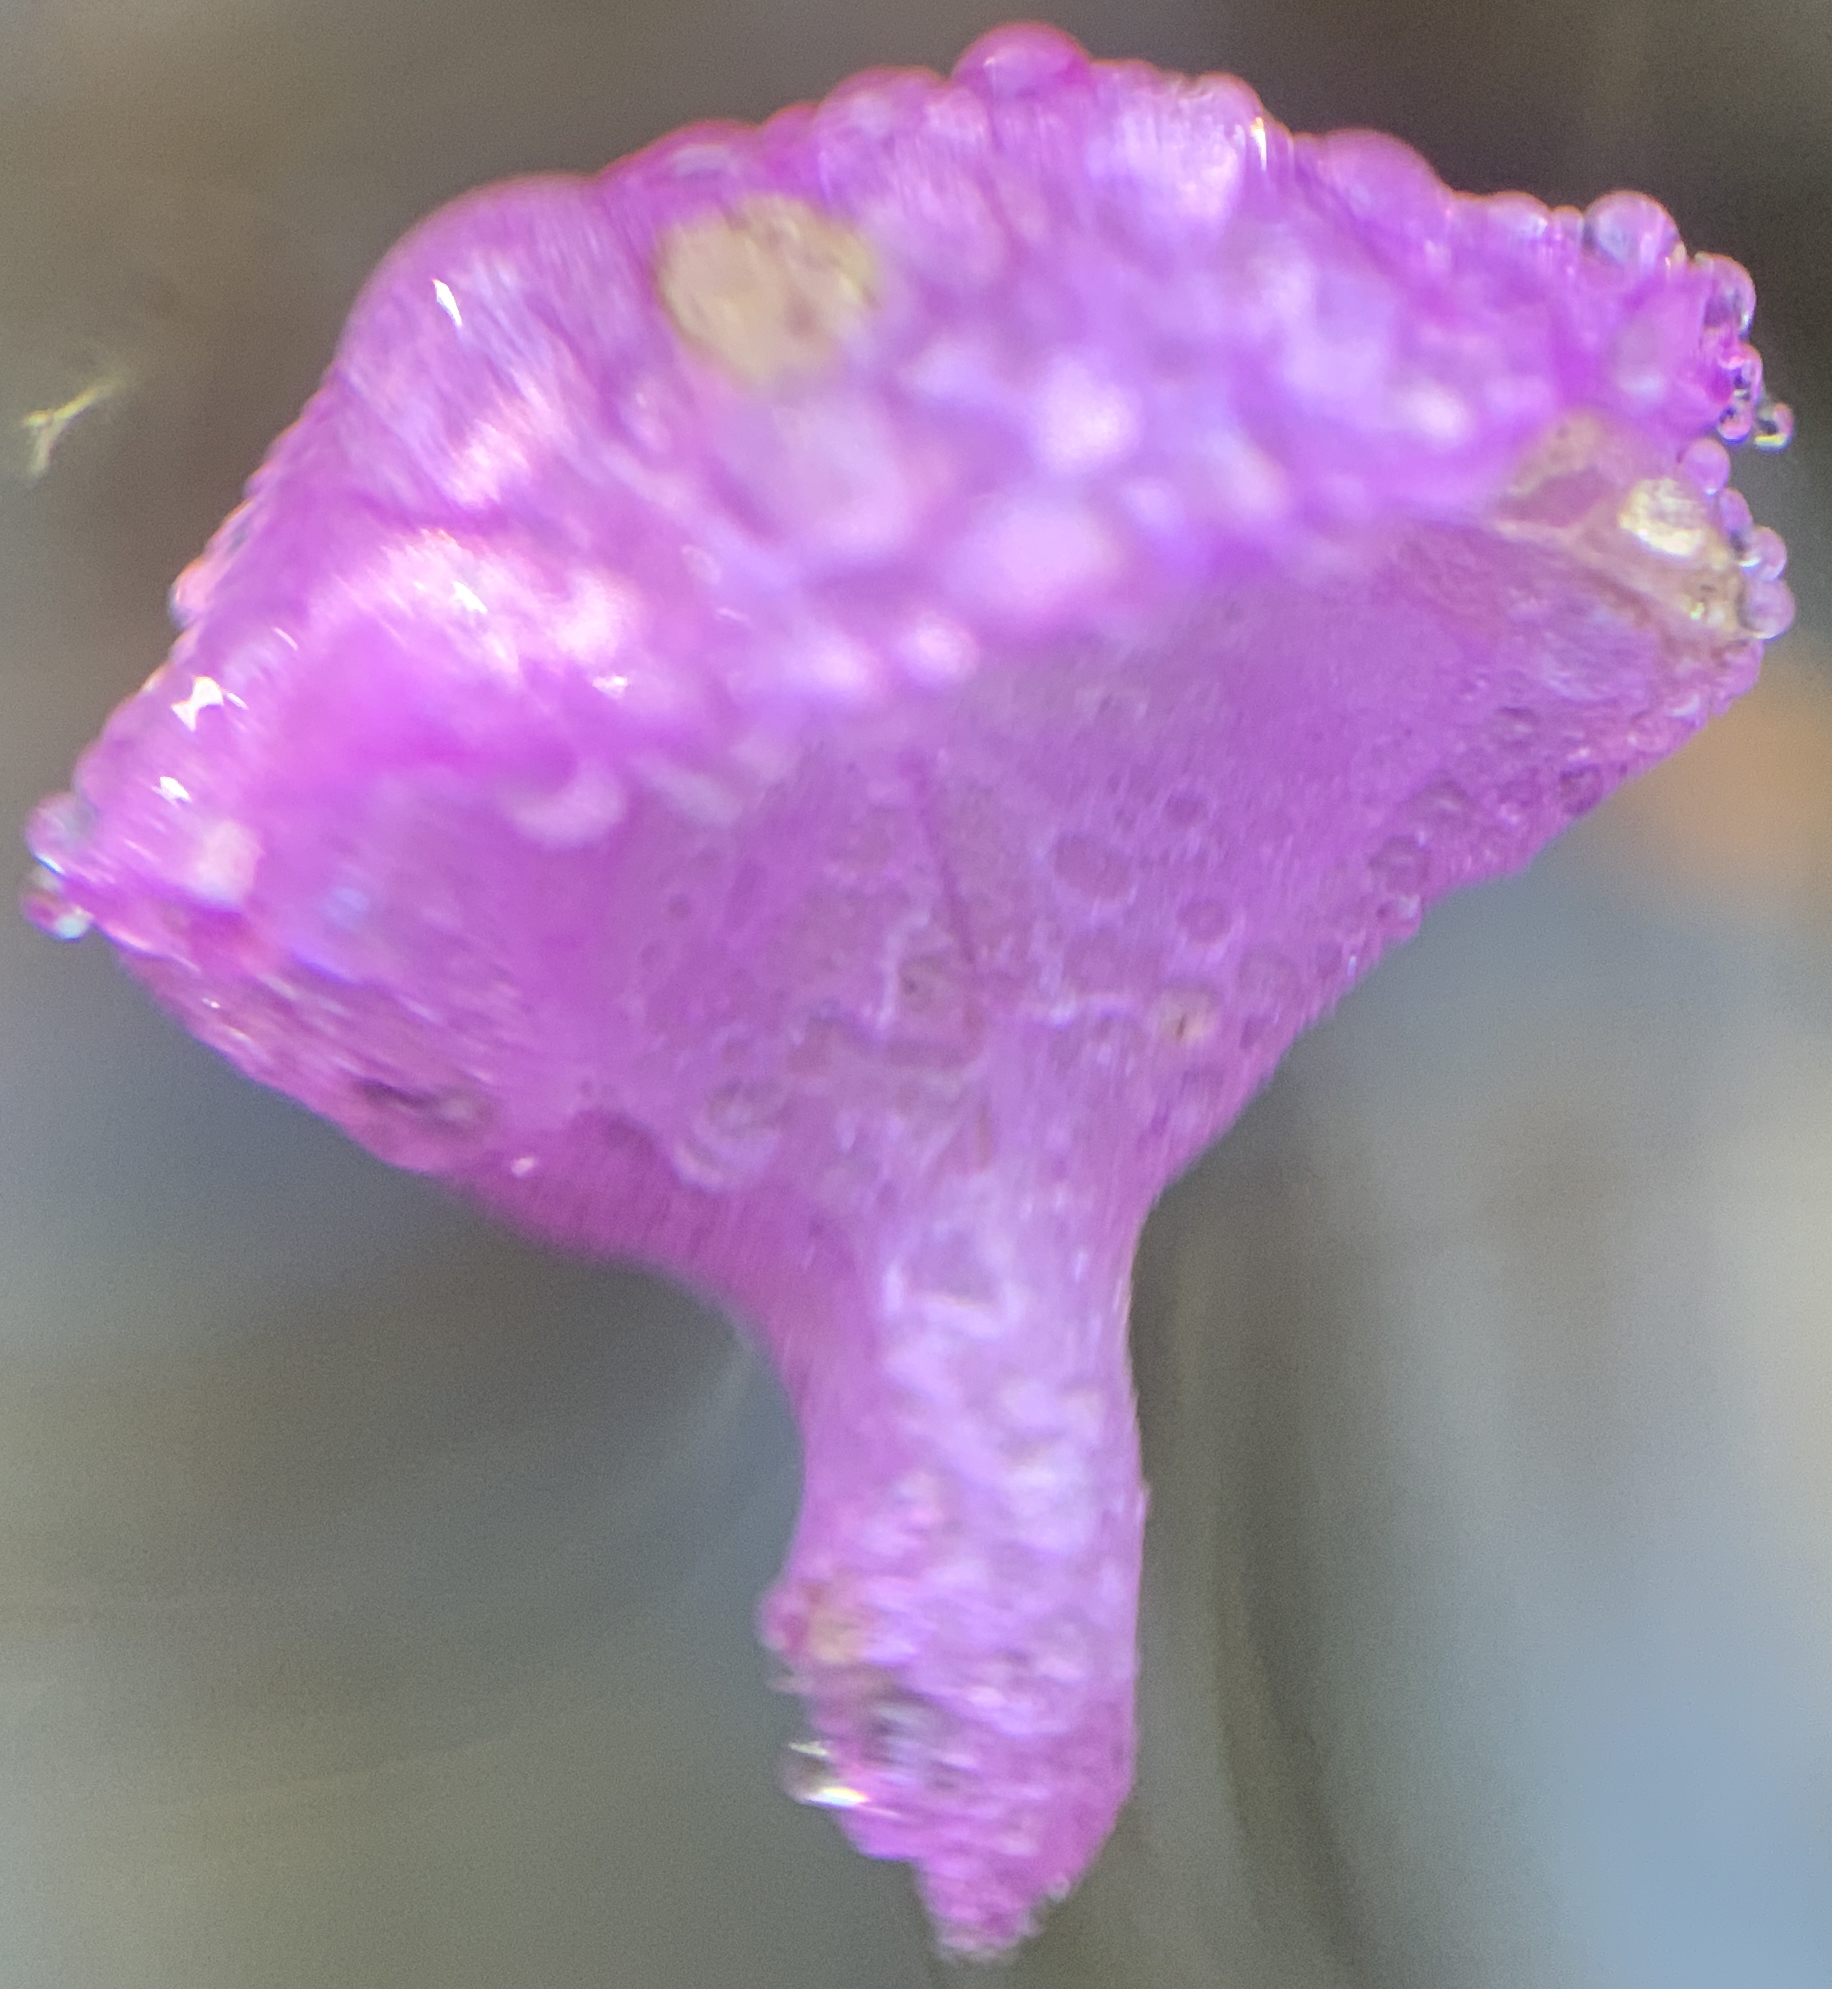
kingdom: Plantae
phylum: Tracheophyta
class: Magnoliopsida
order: Lamiales
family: Lentibulariaceae
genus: Utricularia
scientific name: Utricularia purpurea
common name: Eastern purple bladderwort
